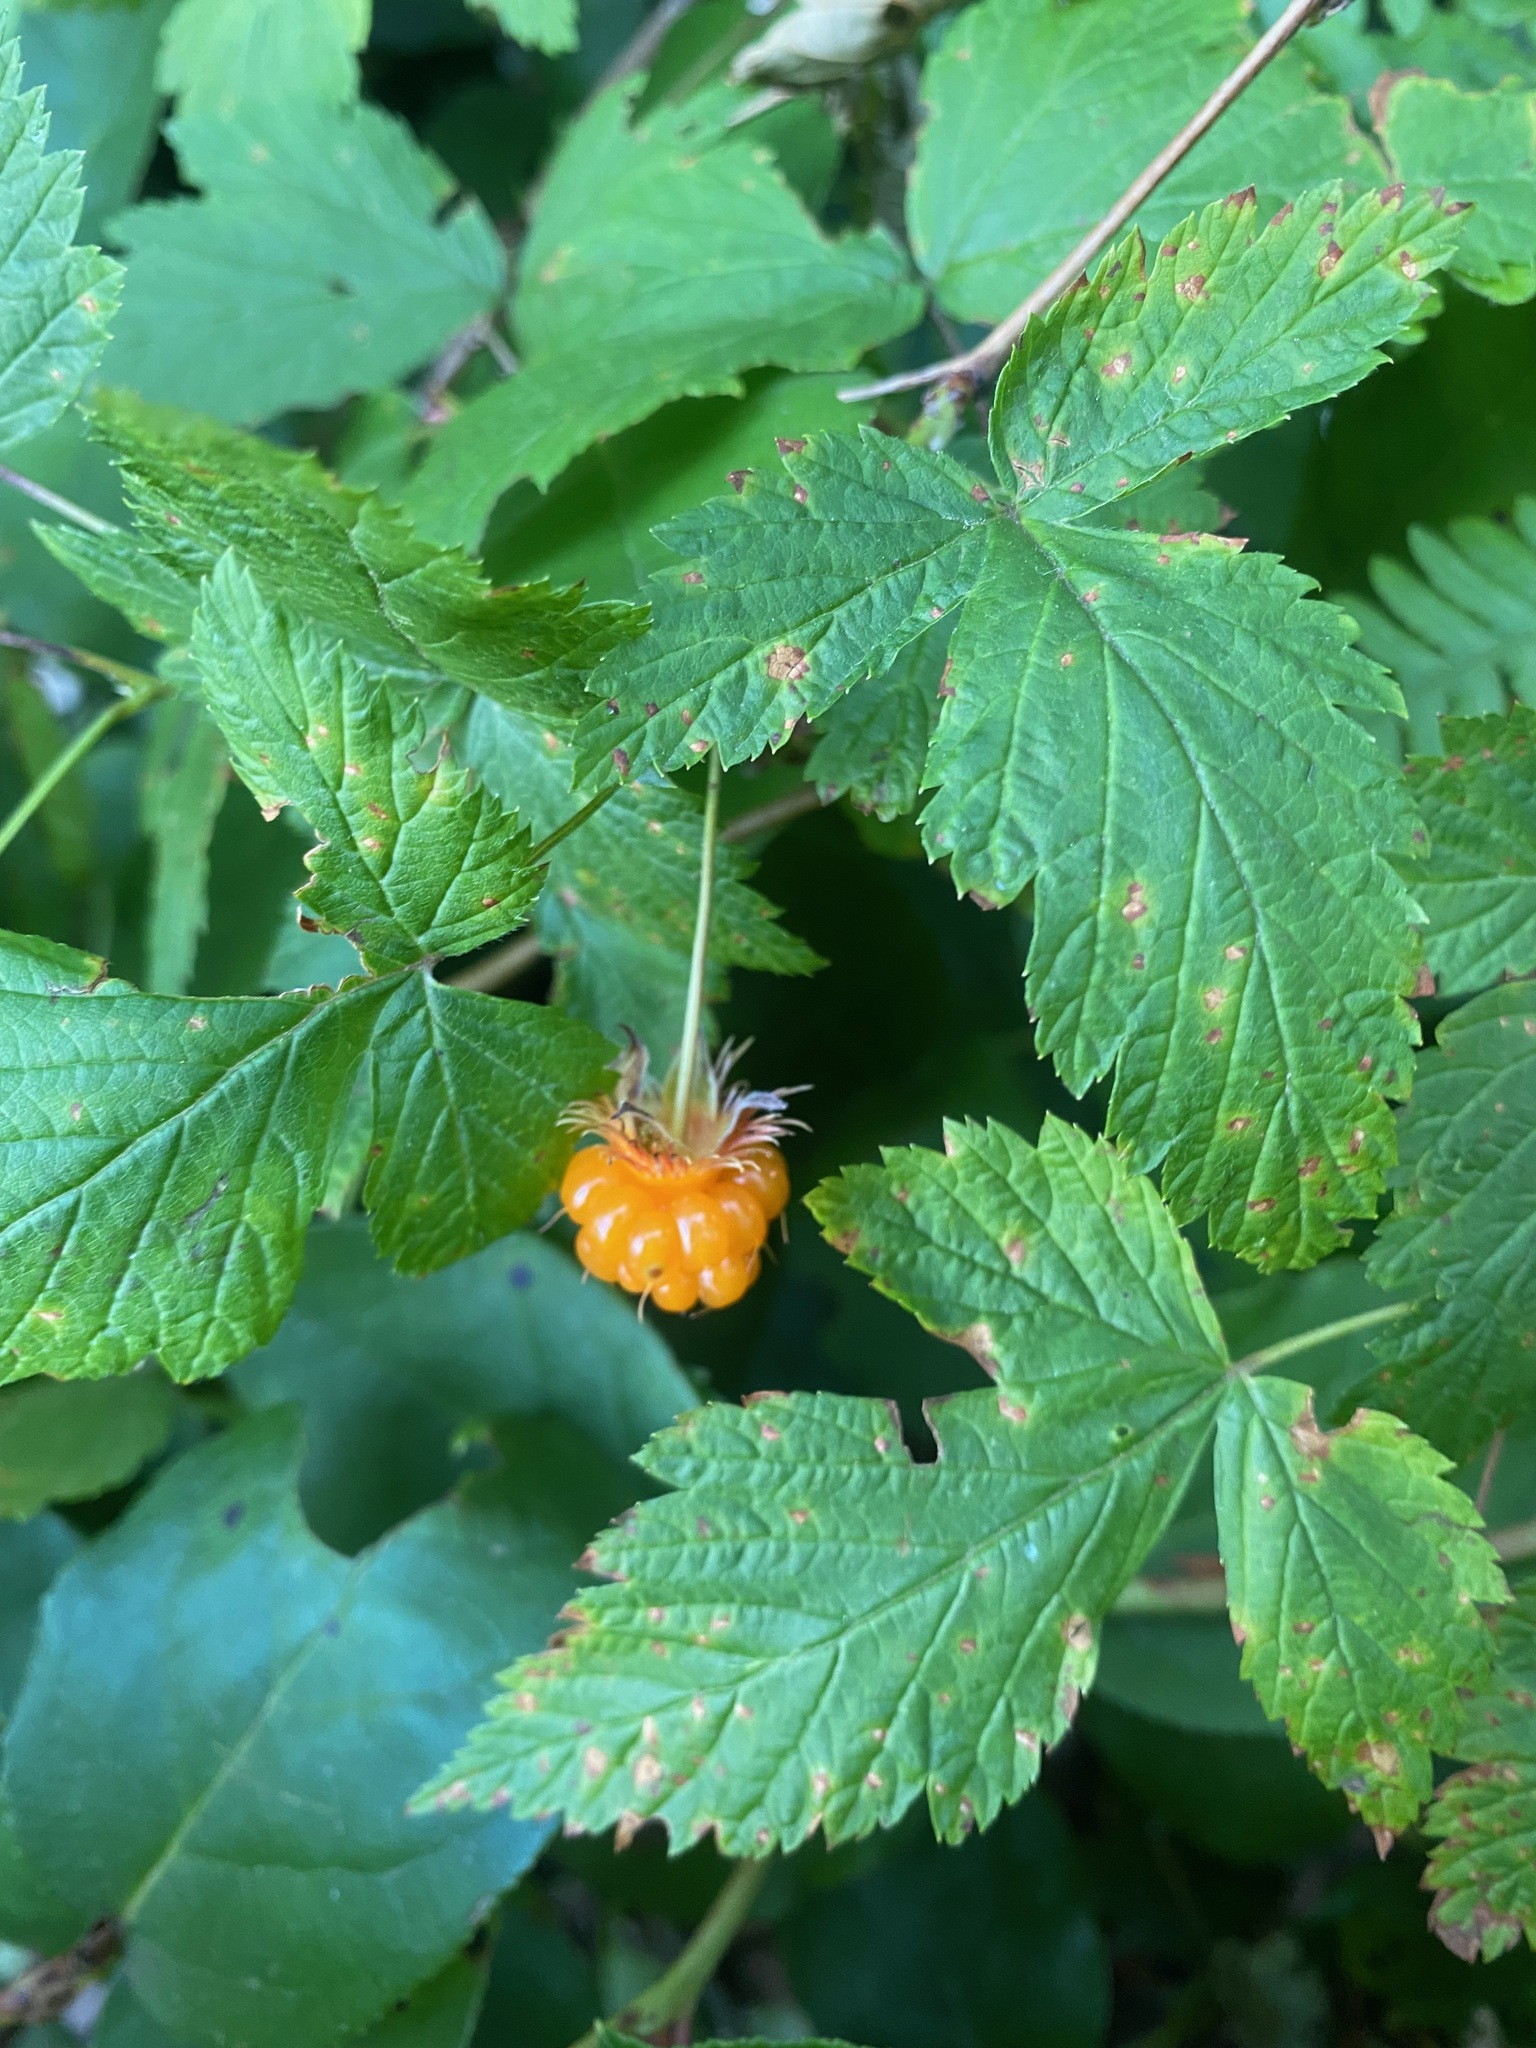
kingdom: Plantae
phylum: Tracheophyta
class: Magnoliopsida
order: Rosales
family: Rosaceae
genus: Rubus
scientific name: Rubus spectabilis
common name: Salmonberry
